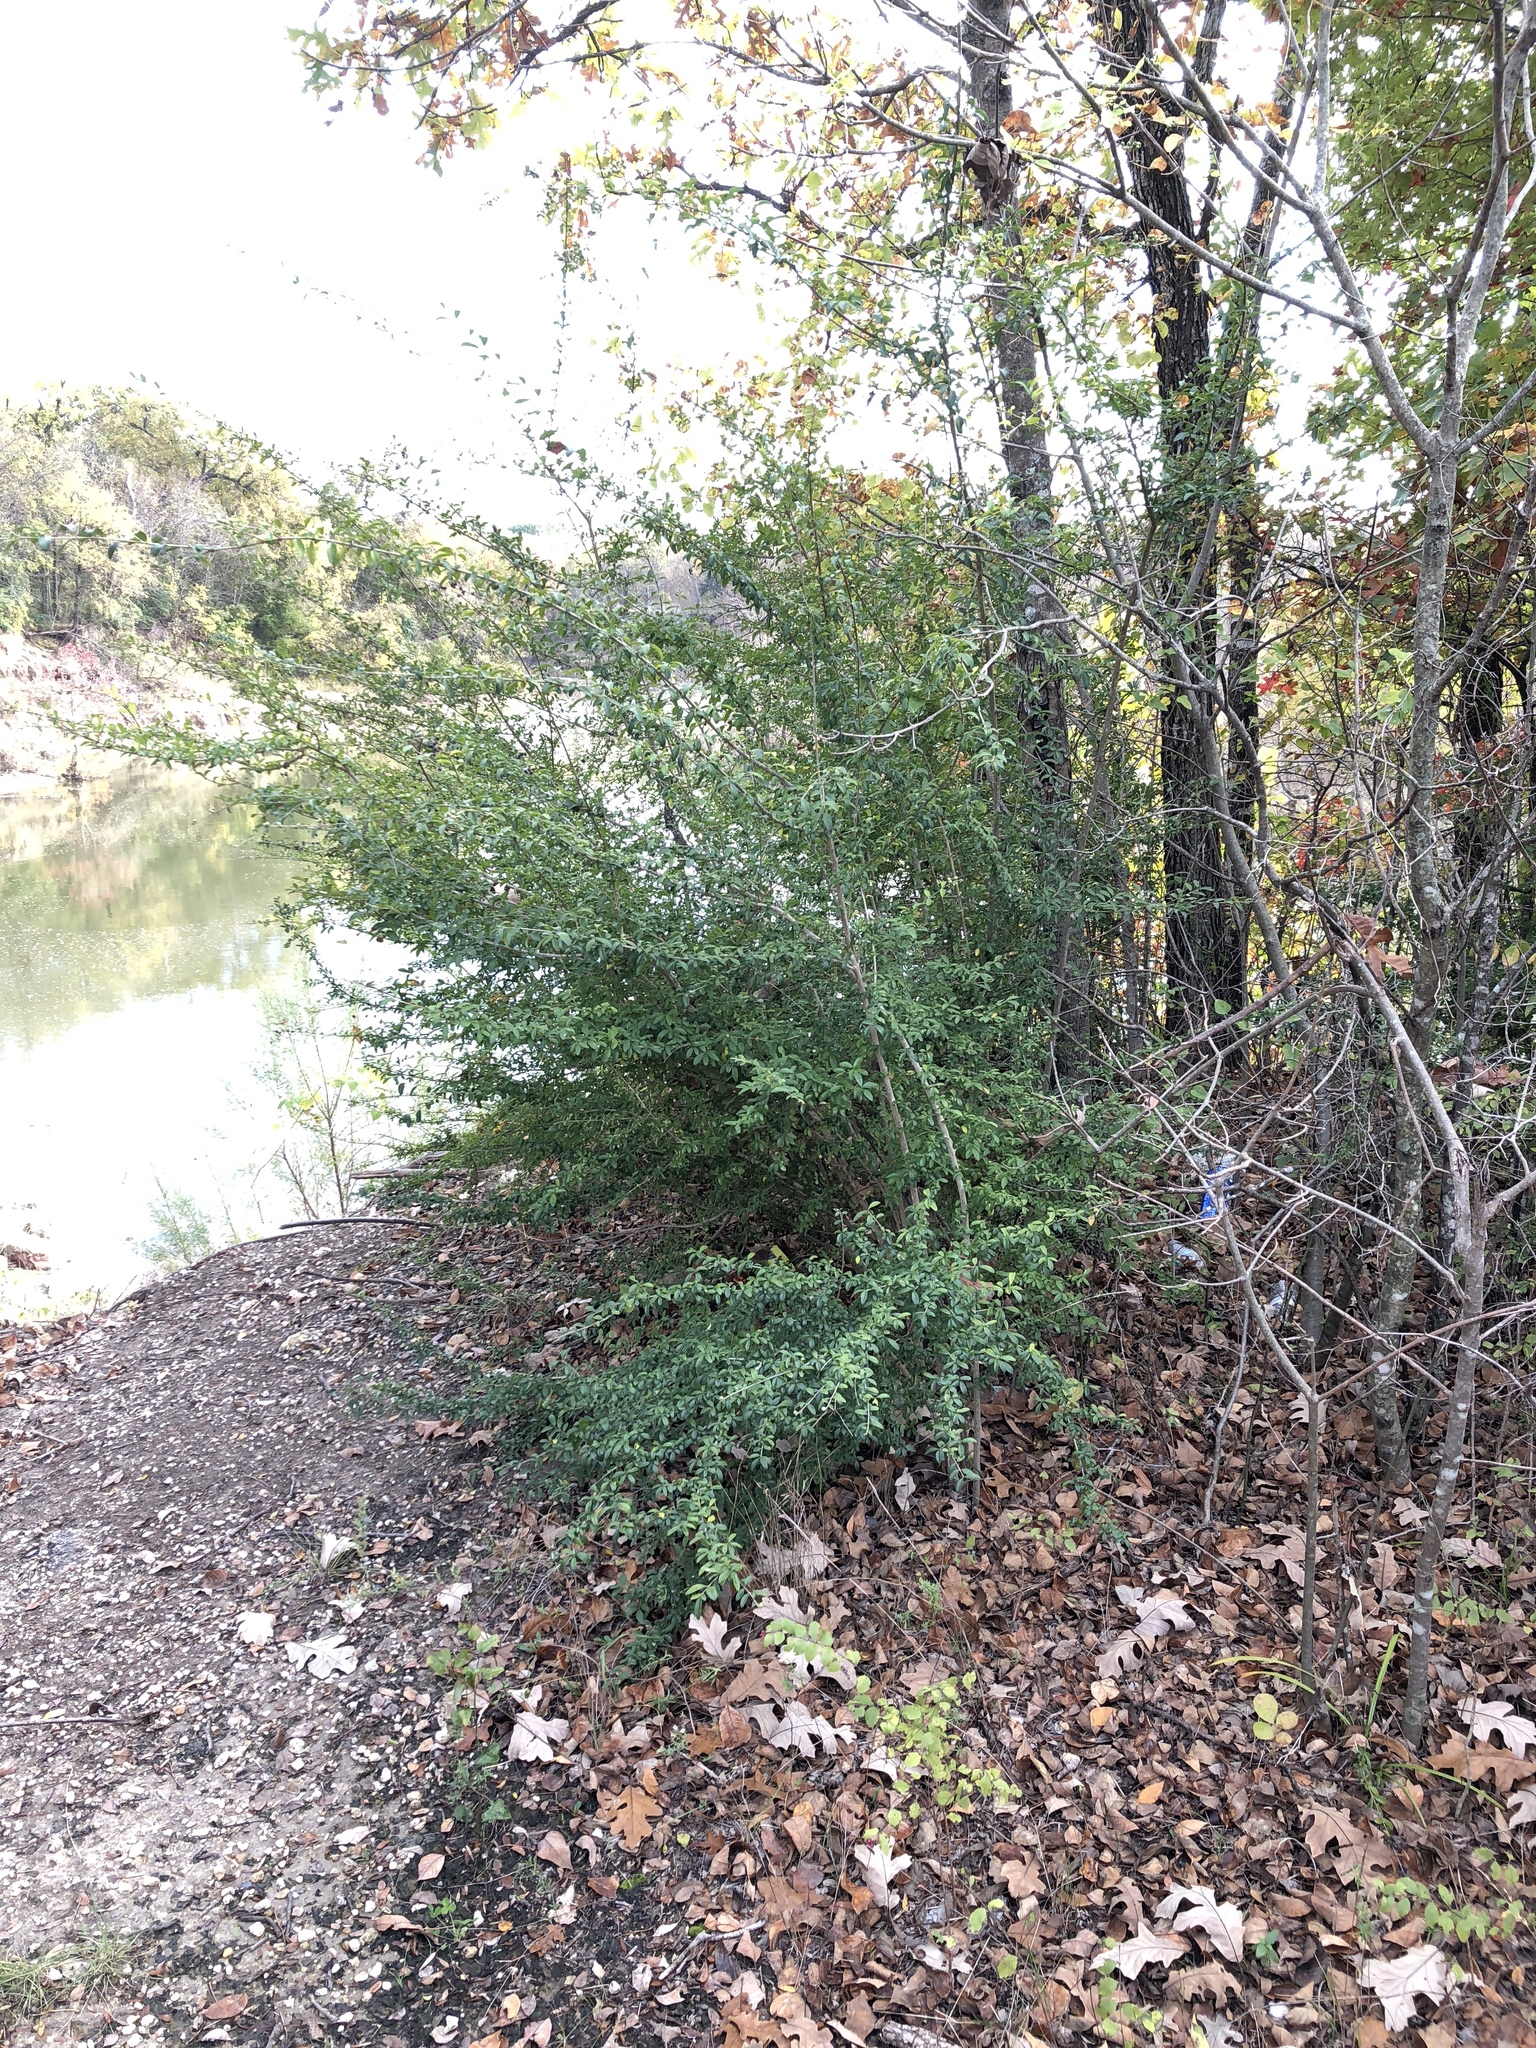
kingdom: Plantae
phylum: Tracheophyta
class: Magnoliopsida
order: Lamiales
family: Oleaceae
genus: Ligustrum
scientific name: Ligustrum quihoui
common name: Waxyleaf privet
